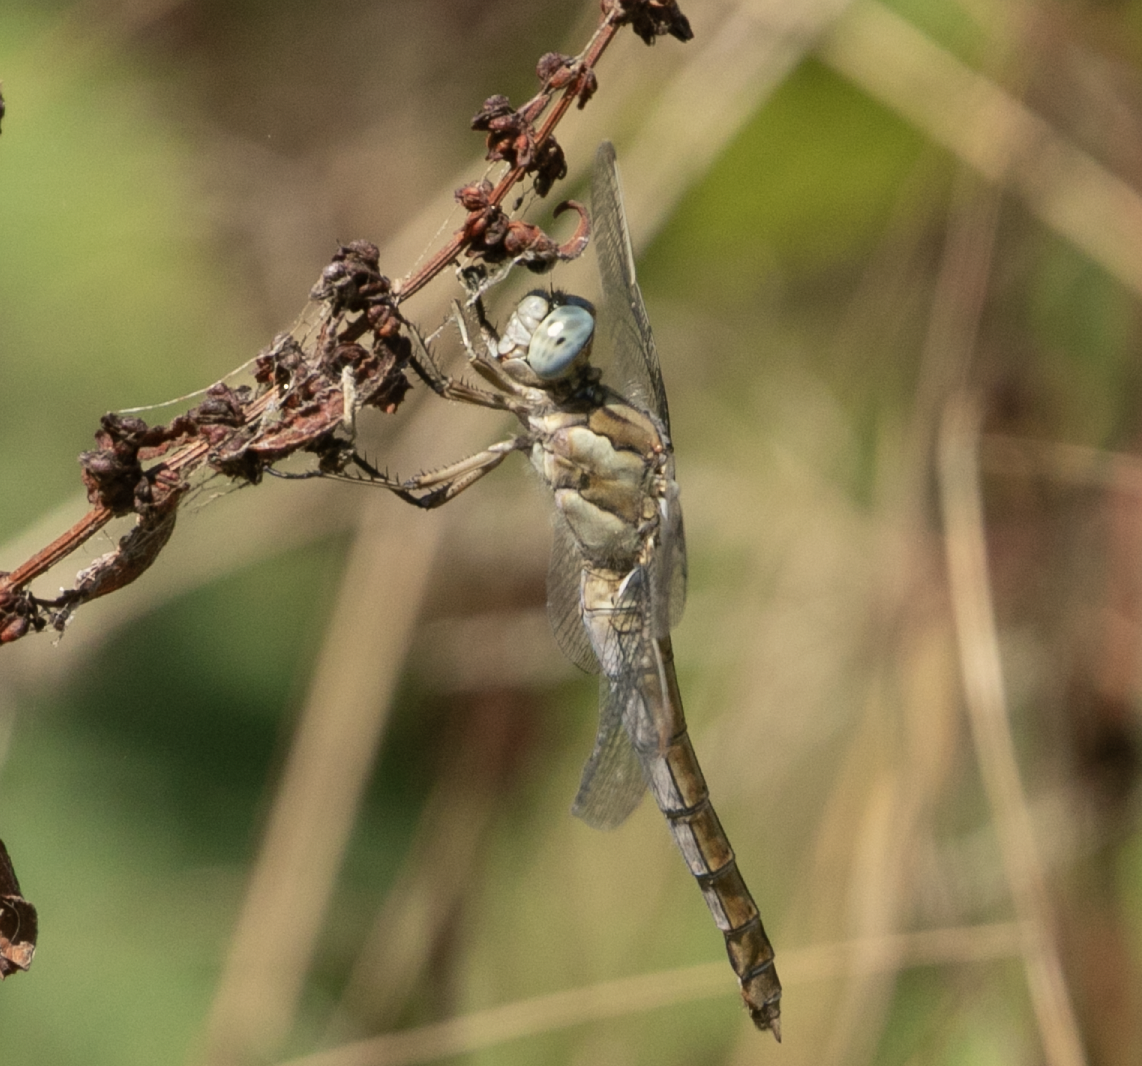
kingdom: Animalia
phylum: Arthropoda
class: Insecta
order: Odonata
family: Libellulidae
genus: Orthetrum
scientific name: Orthetrum brunneum
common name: Southern skimmer
